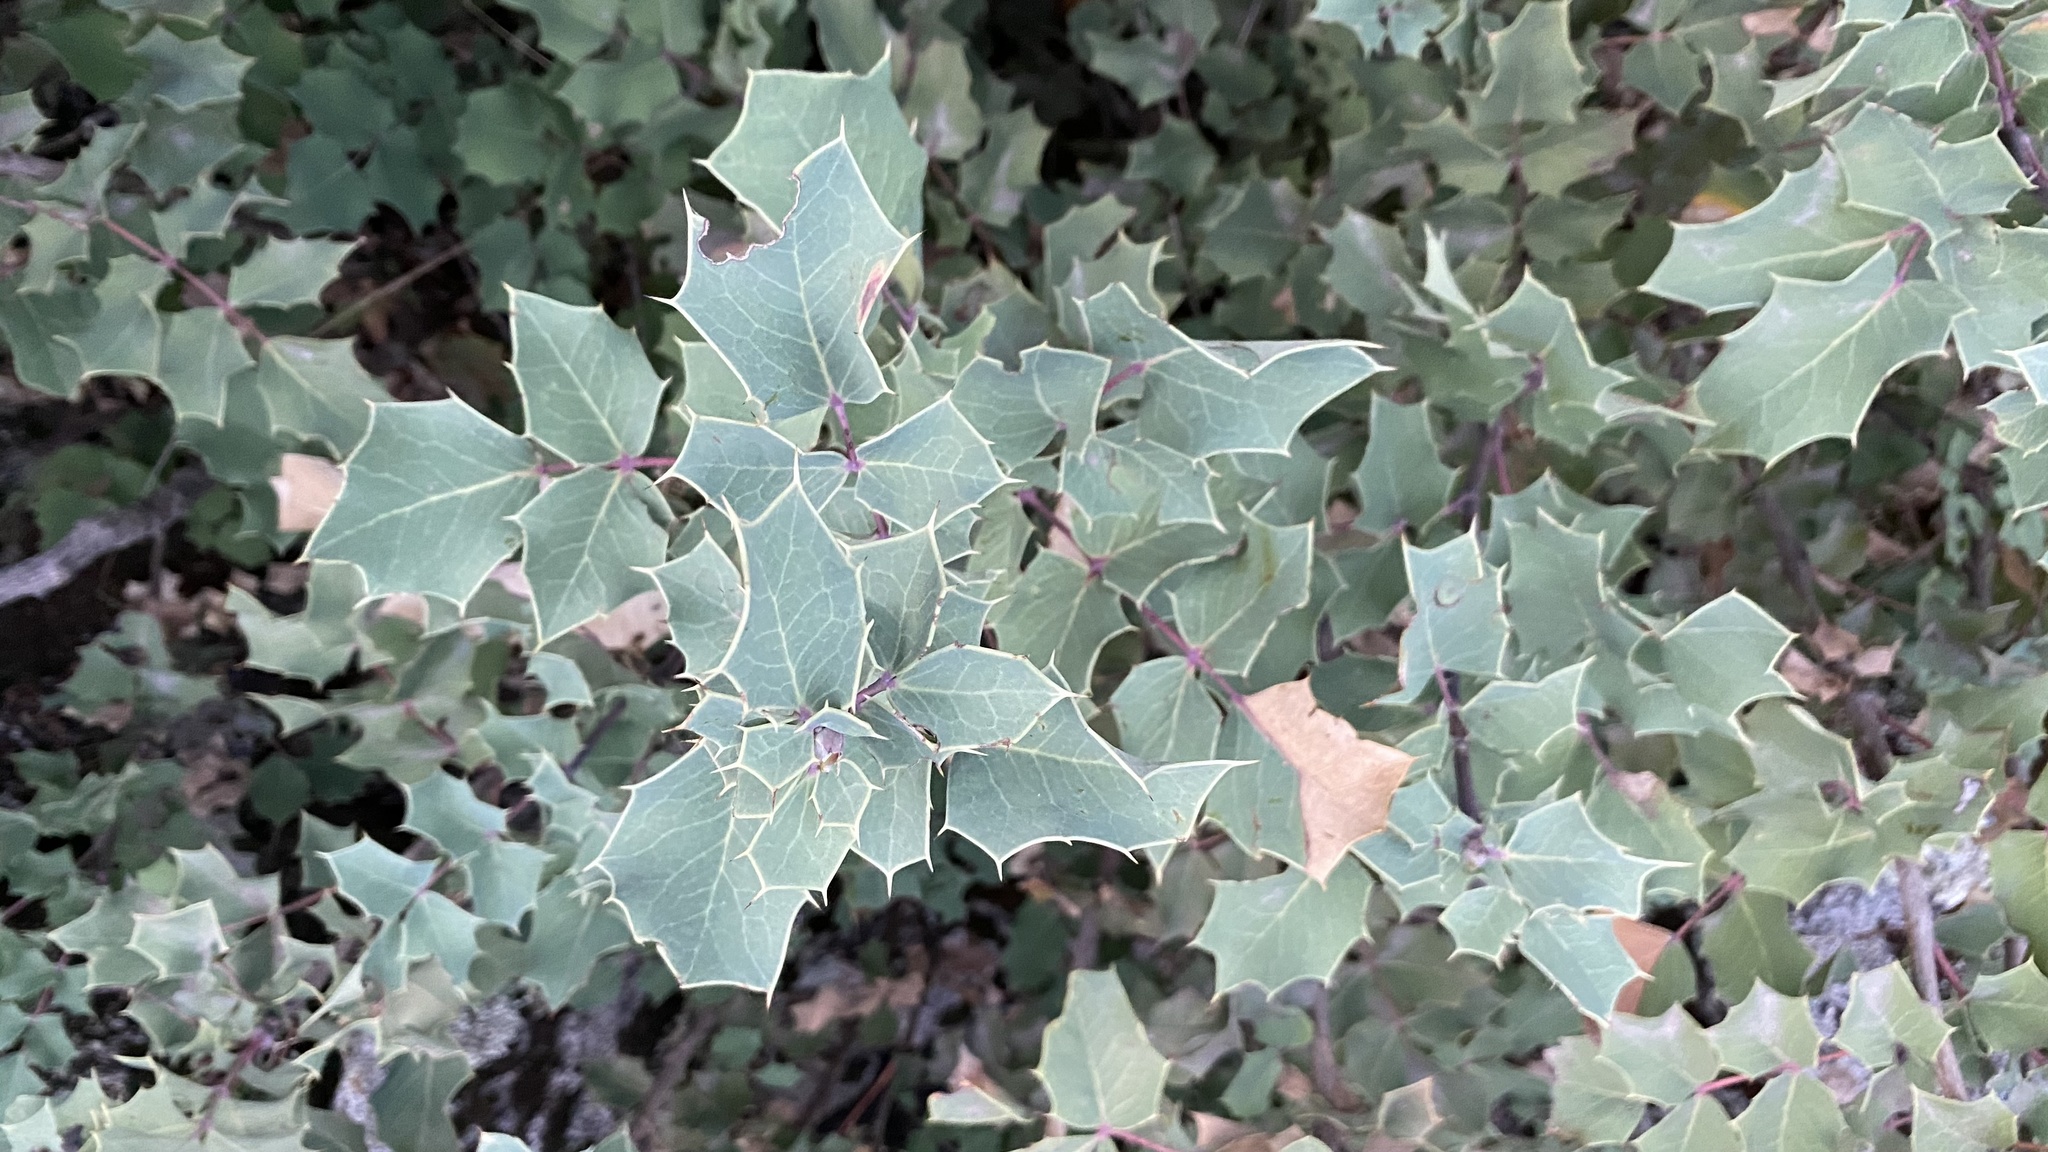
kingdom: Plantae
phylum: Tracheophyta
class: Magnoliopsida
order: Ranunculales
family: Berberidaceae
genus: Mahonia
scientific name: Mahonia dictyota
